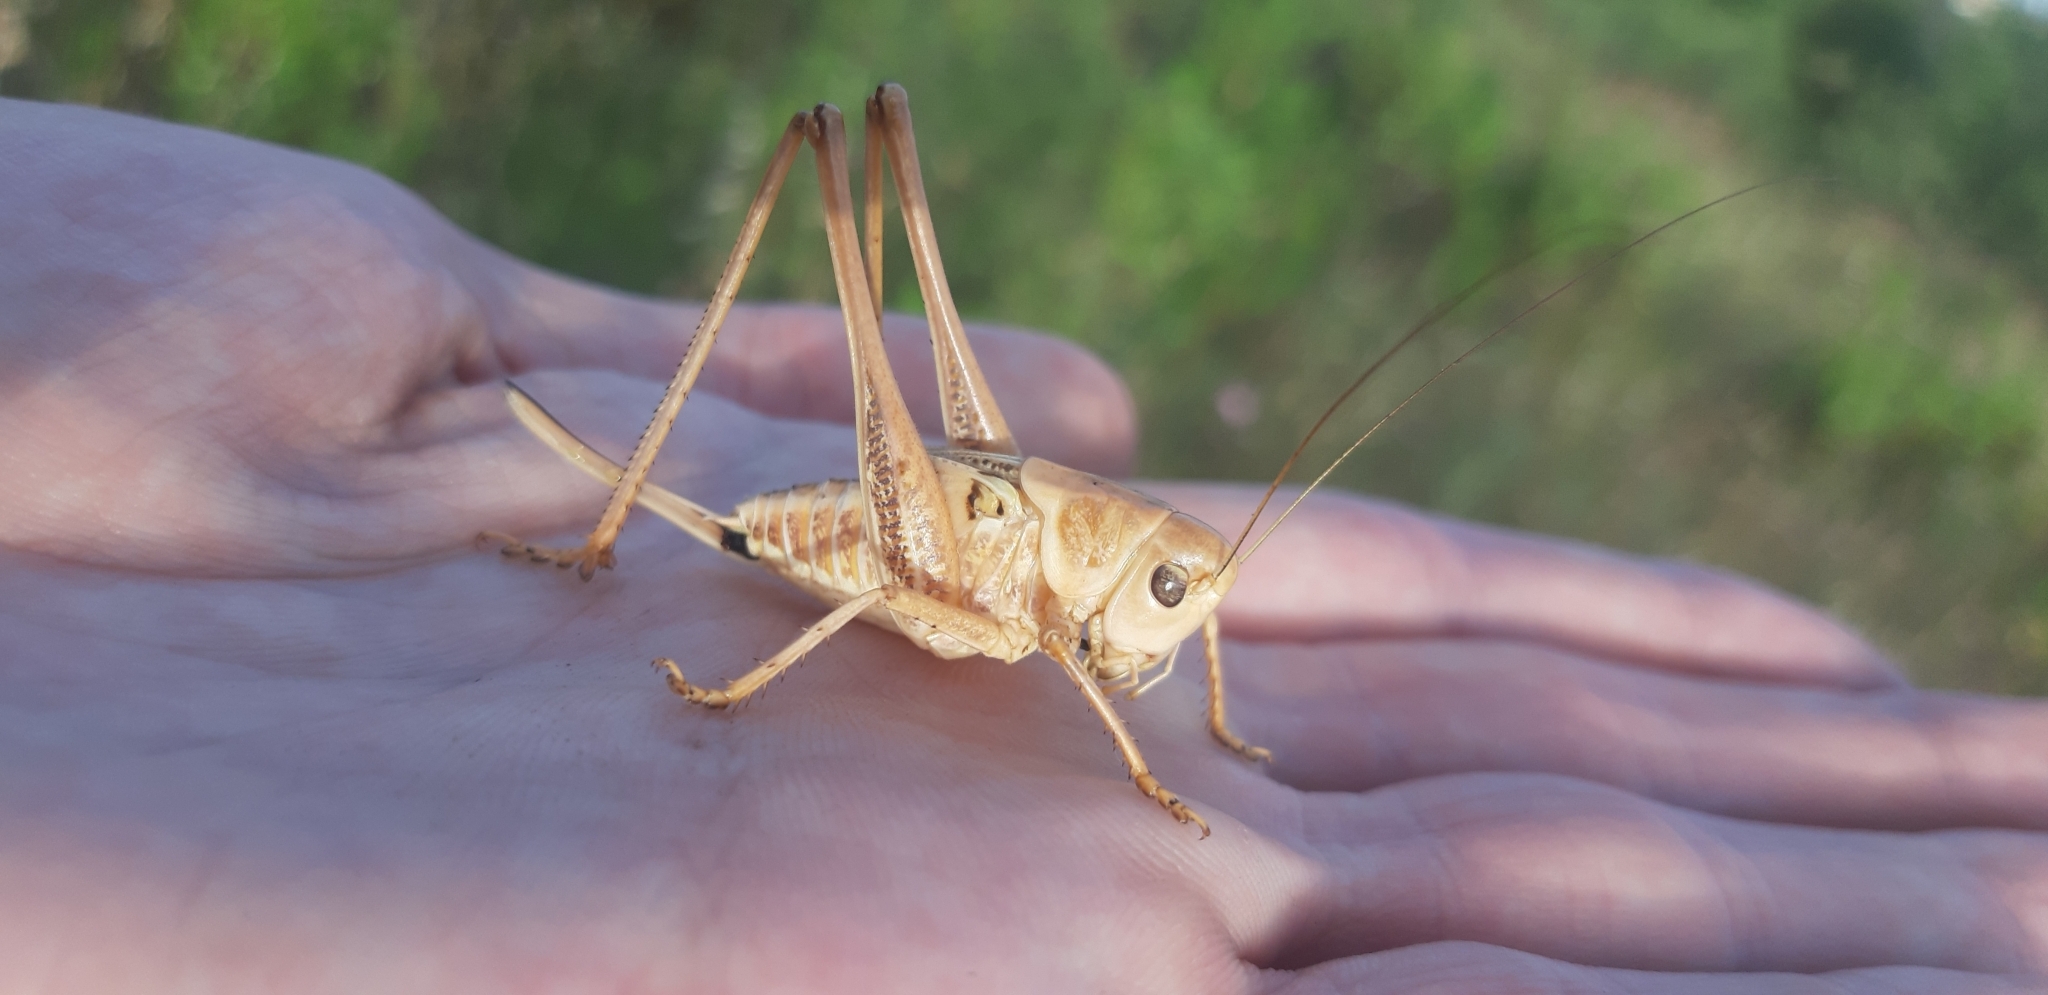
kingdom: Animalia
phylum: Arthropoda
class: Insecta
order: Orthoptera
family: Tettigoniidae
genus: Decticus
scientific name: Decticus albifrons
